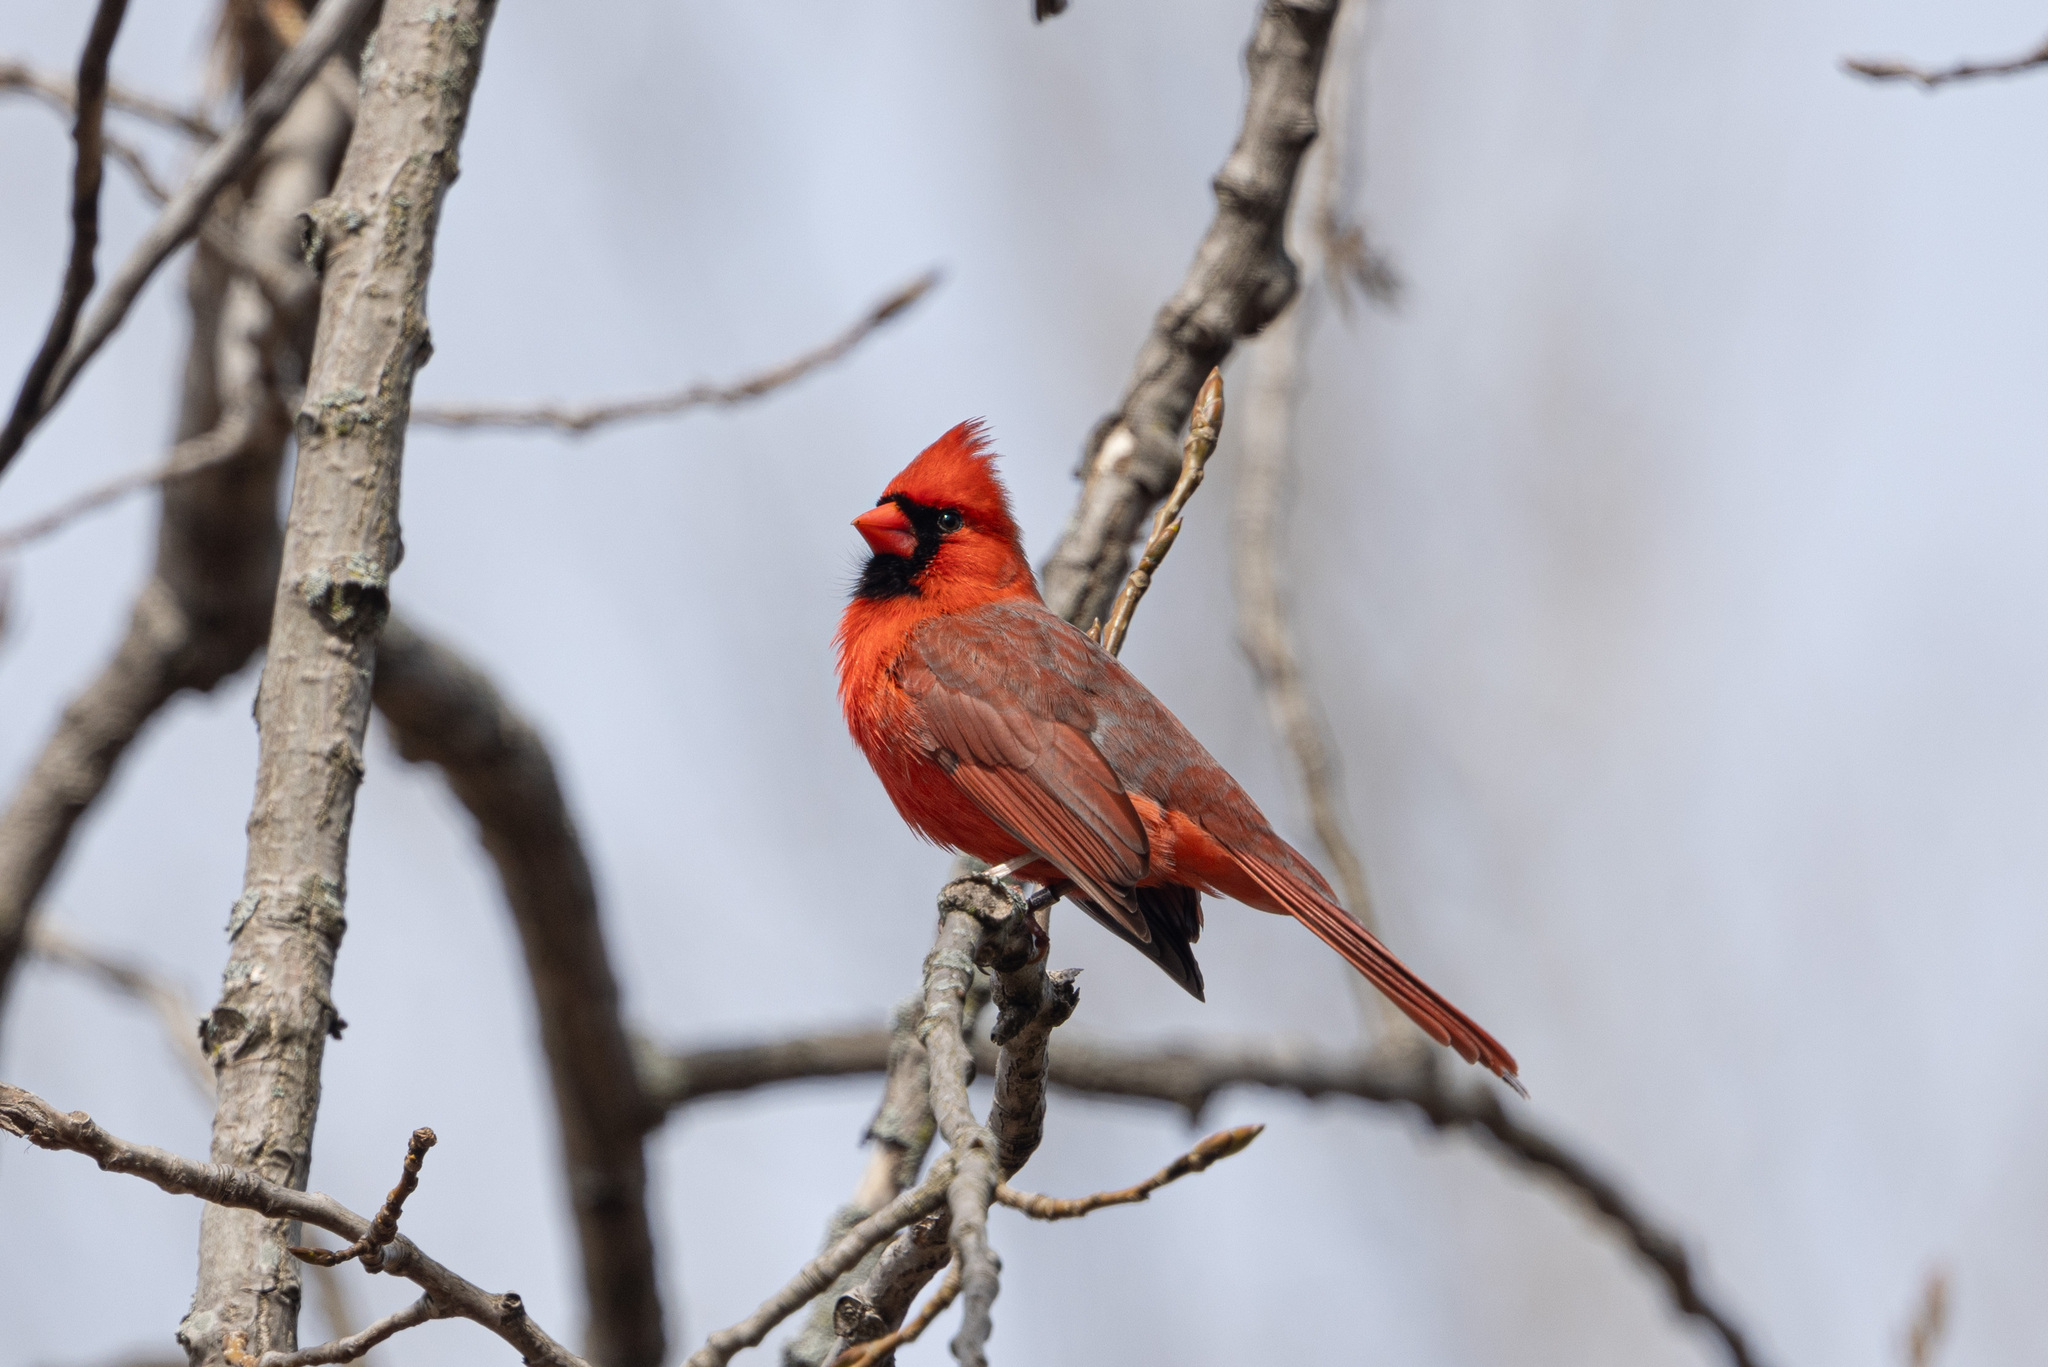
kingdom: Animalia
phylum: Chordata
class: Aves
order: Passeriformes
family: Cardinalidae
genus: Cardinalis
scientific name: Cardinalis cardinalis
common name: Northern cardinal
